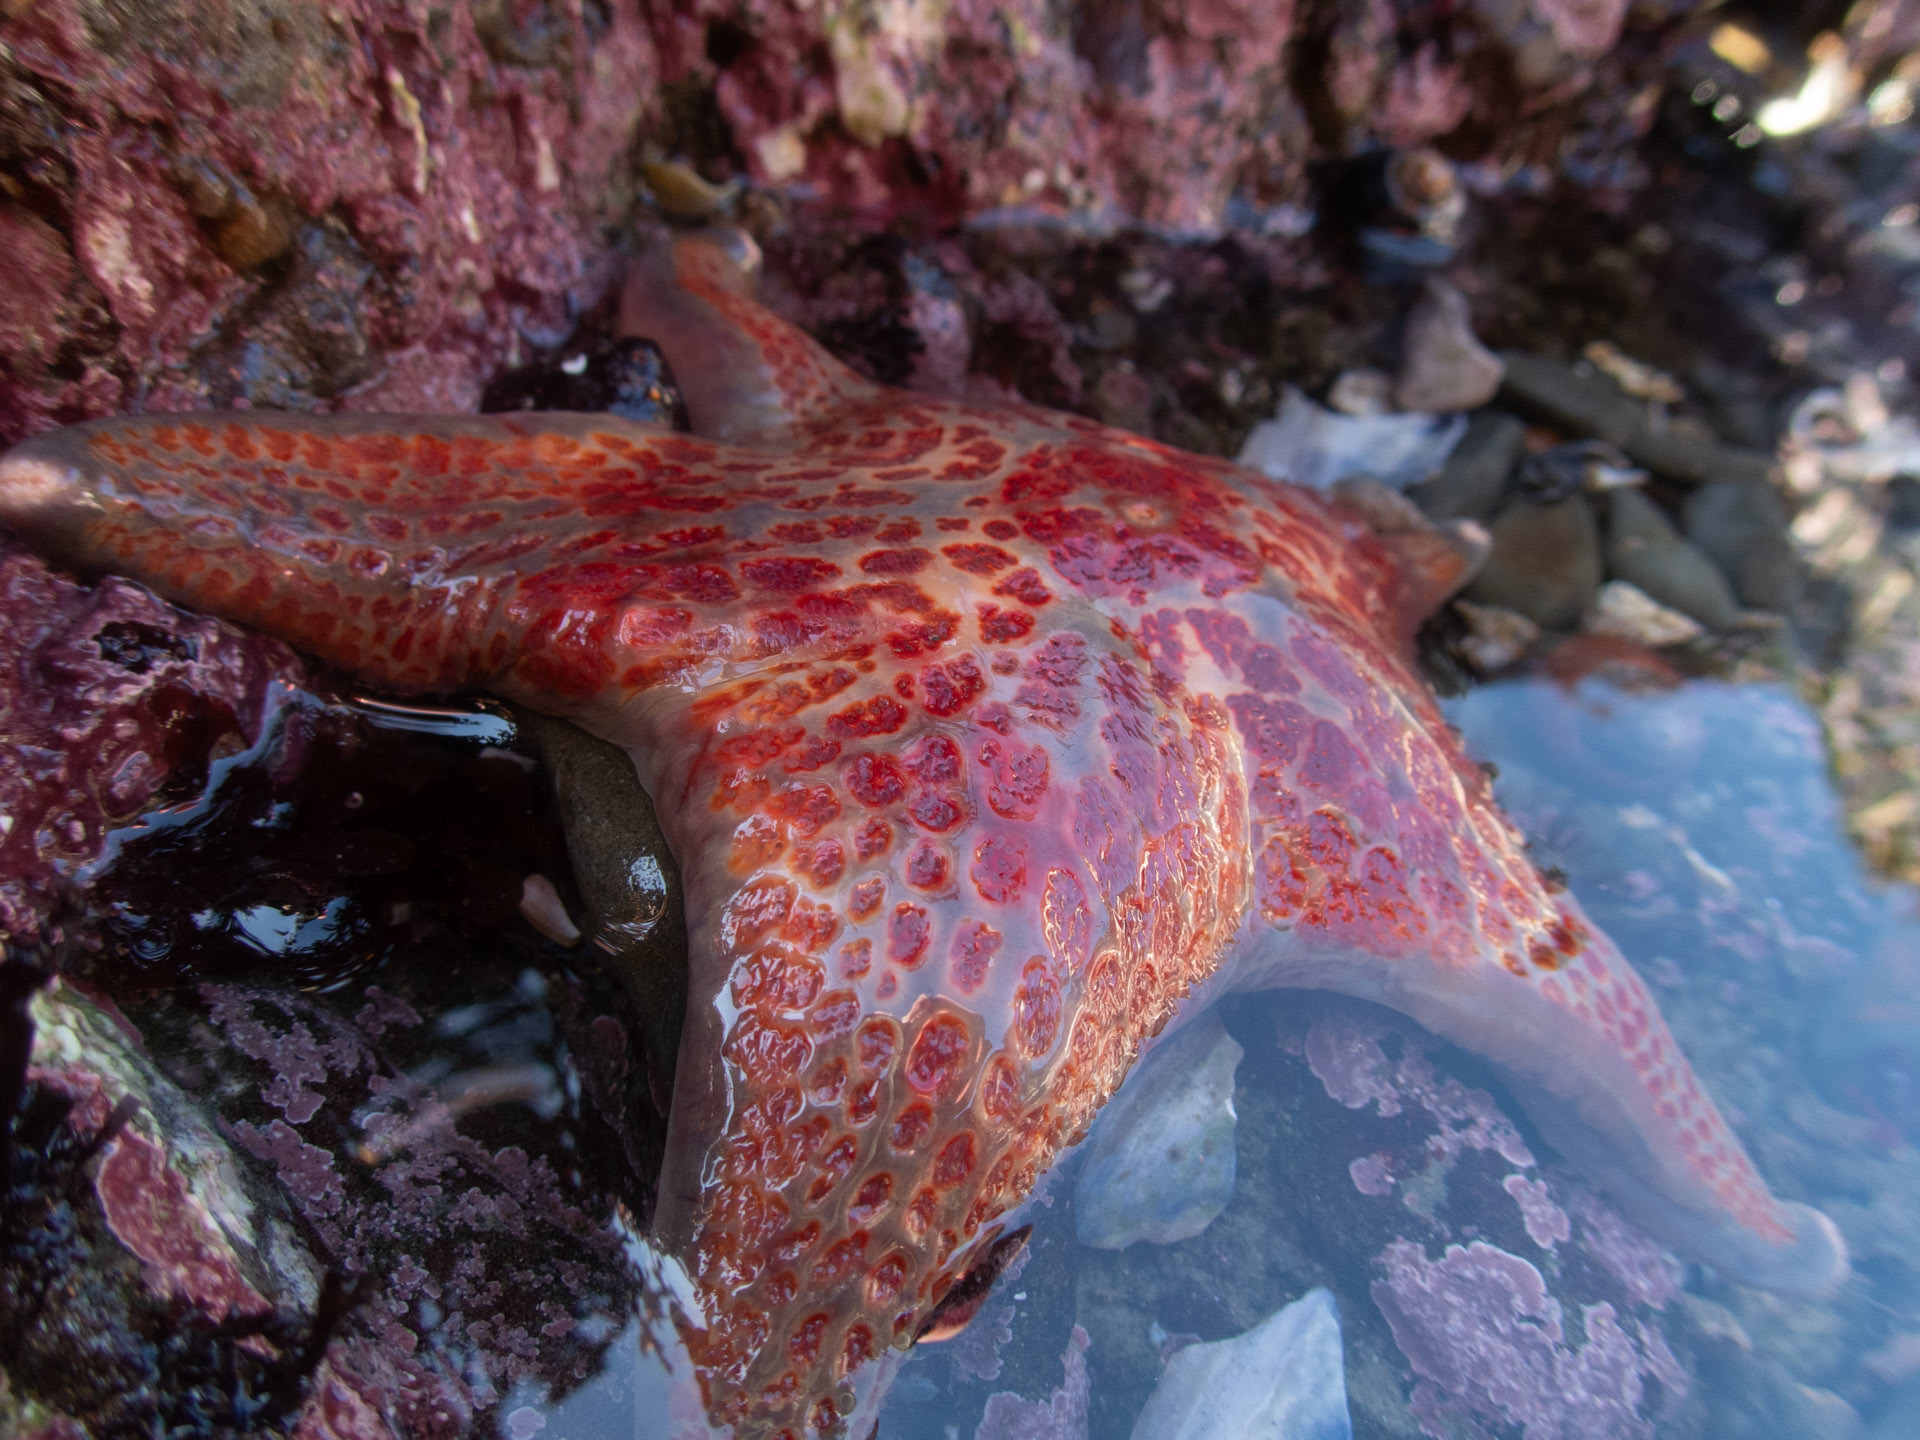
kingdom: Animalia
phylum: Echinodermata
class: Asteroidea
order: Valvatida
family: Asteropseidae
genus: Dermasterias
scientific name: Dermasterias imbricata
